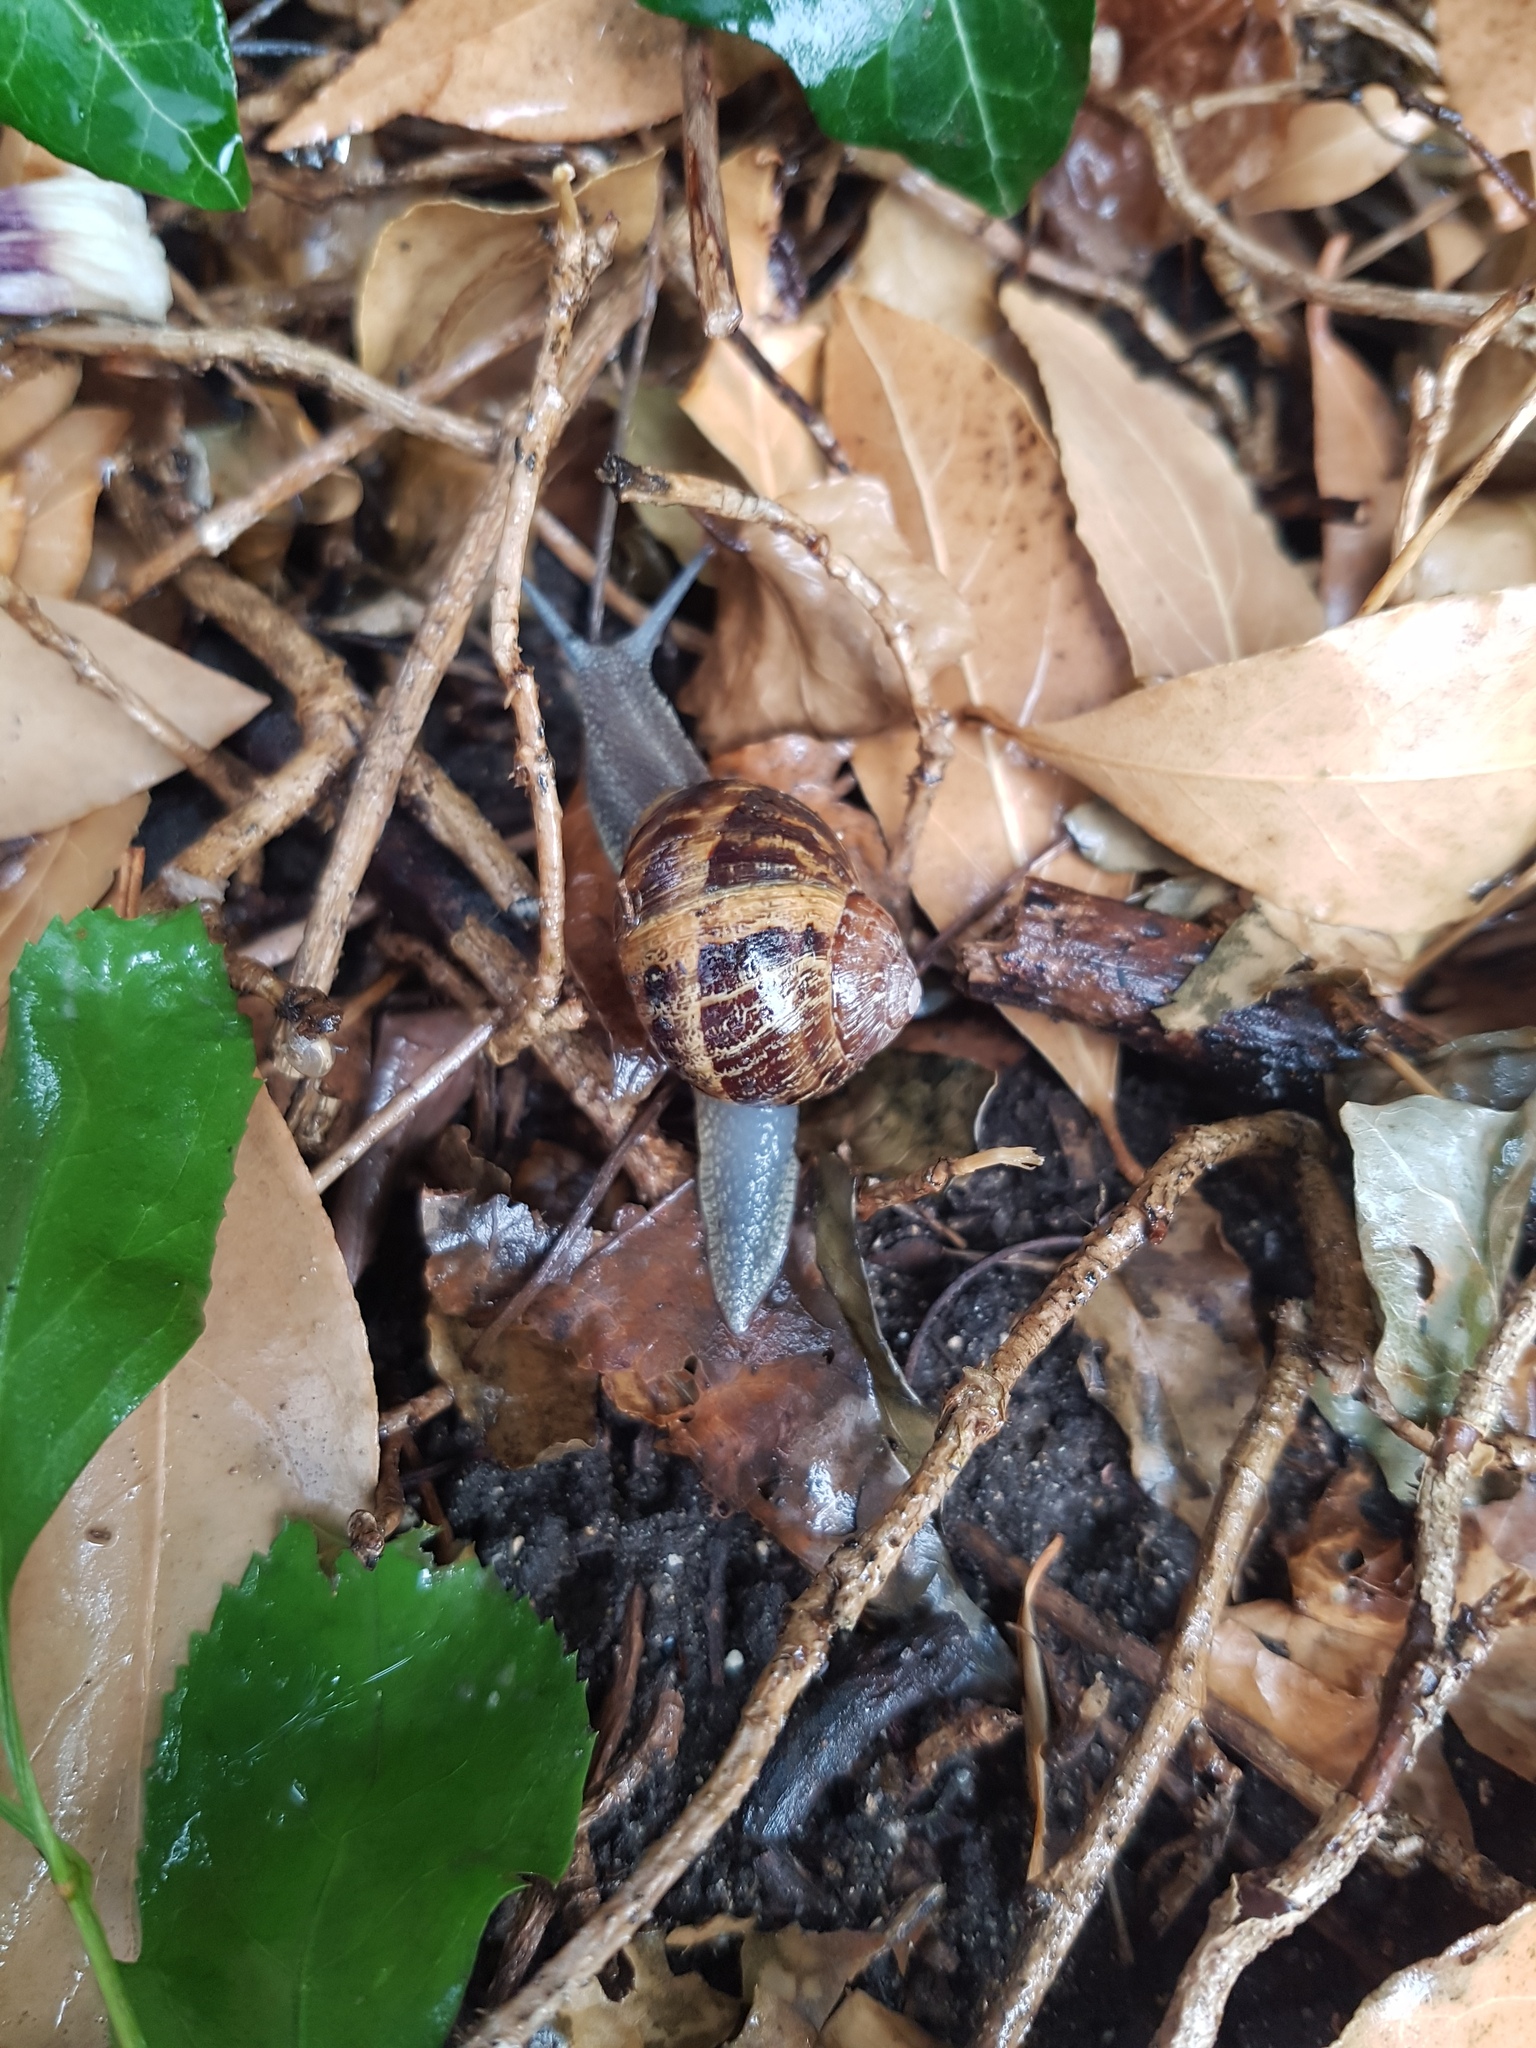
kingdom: Animalia
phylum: Mollusca
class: Gastropoda
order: Stylommatophora
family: Helicidae
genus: Cornu
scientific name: Cornu aspersum
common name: Brown garden snail
